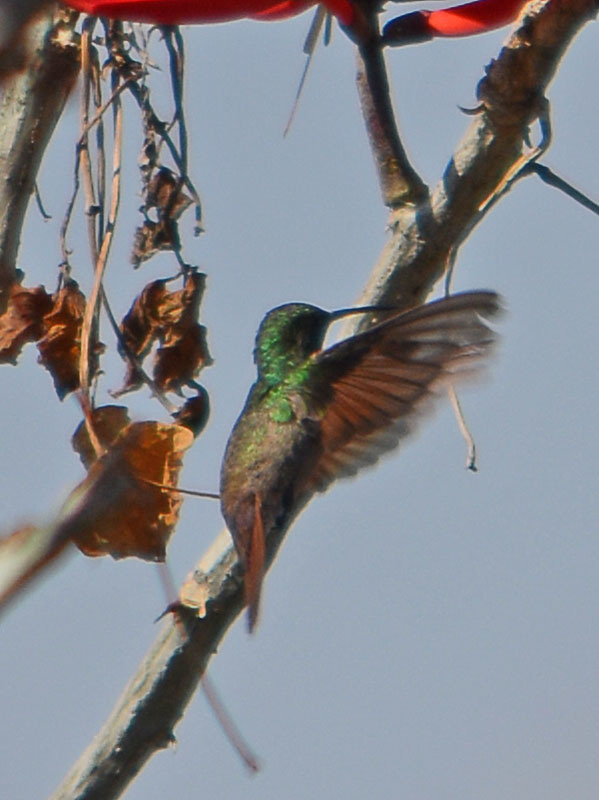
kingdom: Animalia
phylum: Chordata
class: Aves
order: Apodiformes
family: Trochilidae
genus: Saucerottia
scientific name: Saucerottia beryllina
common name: Berylline hummingbird
